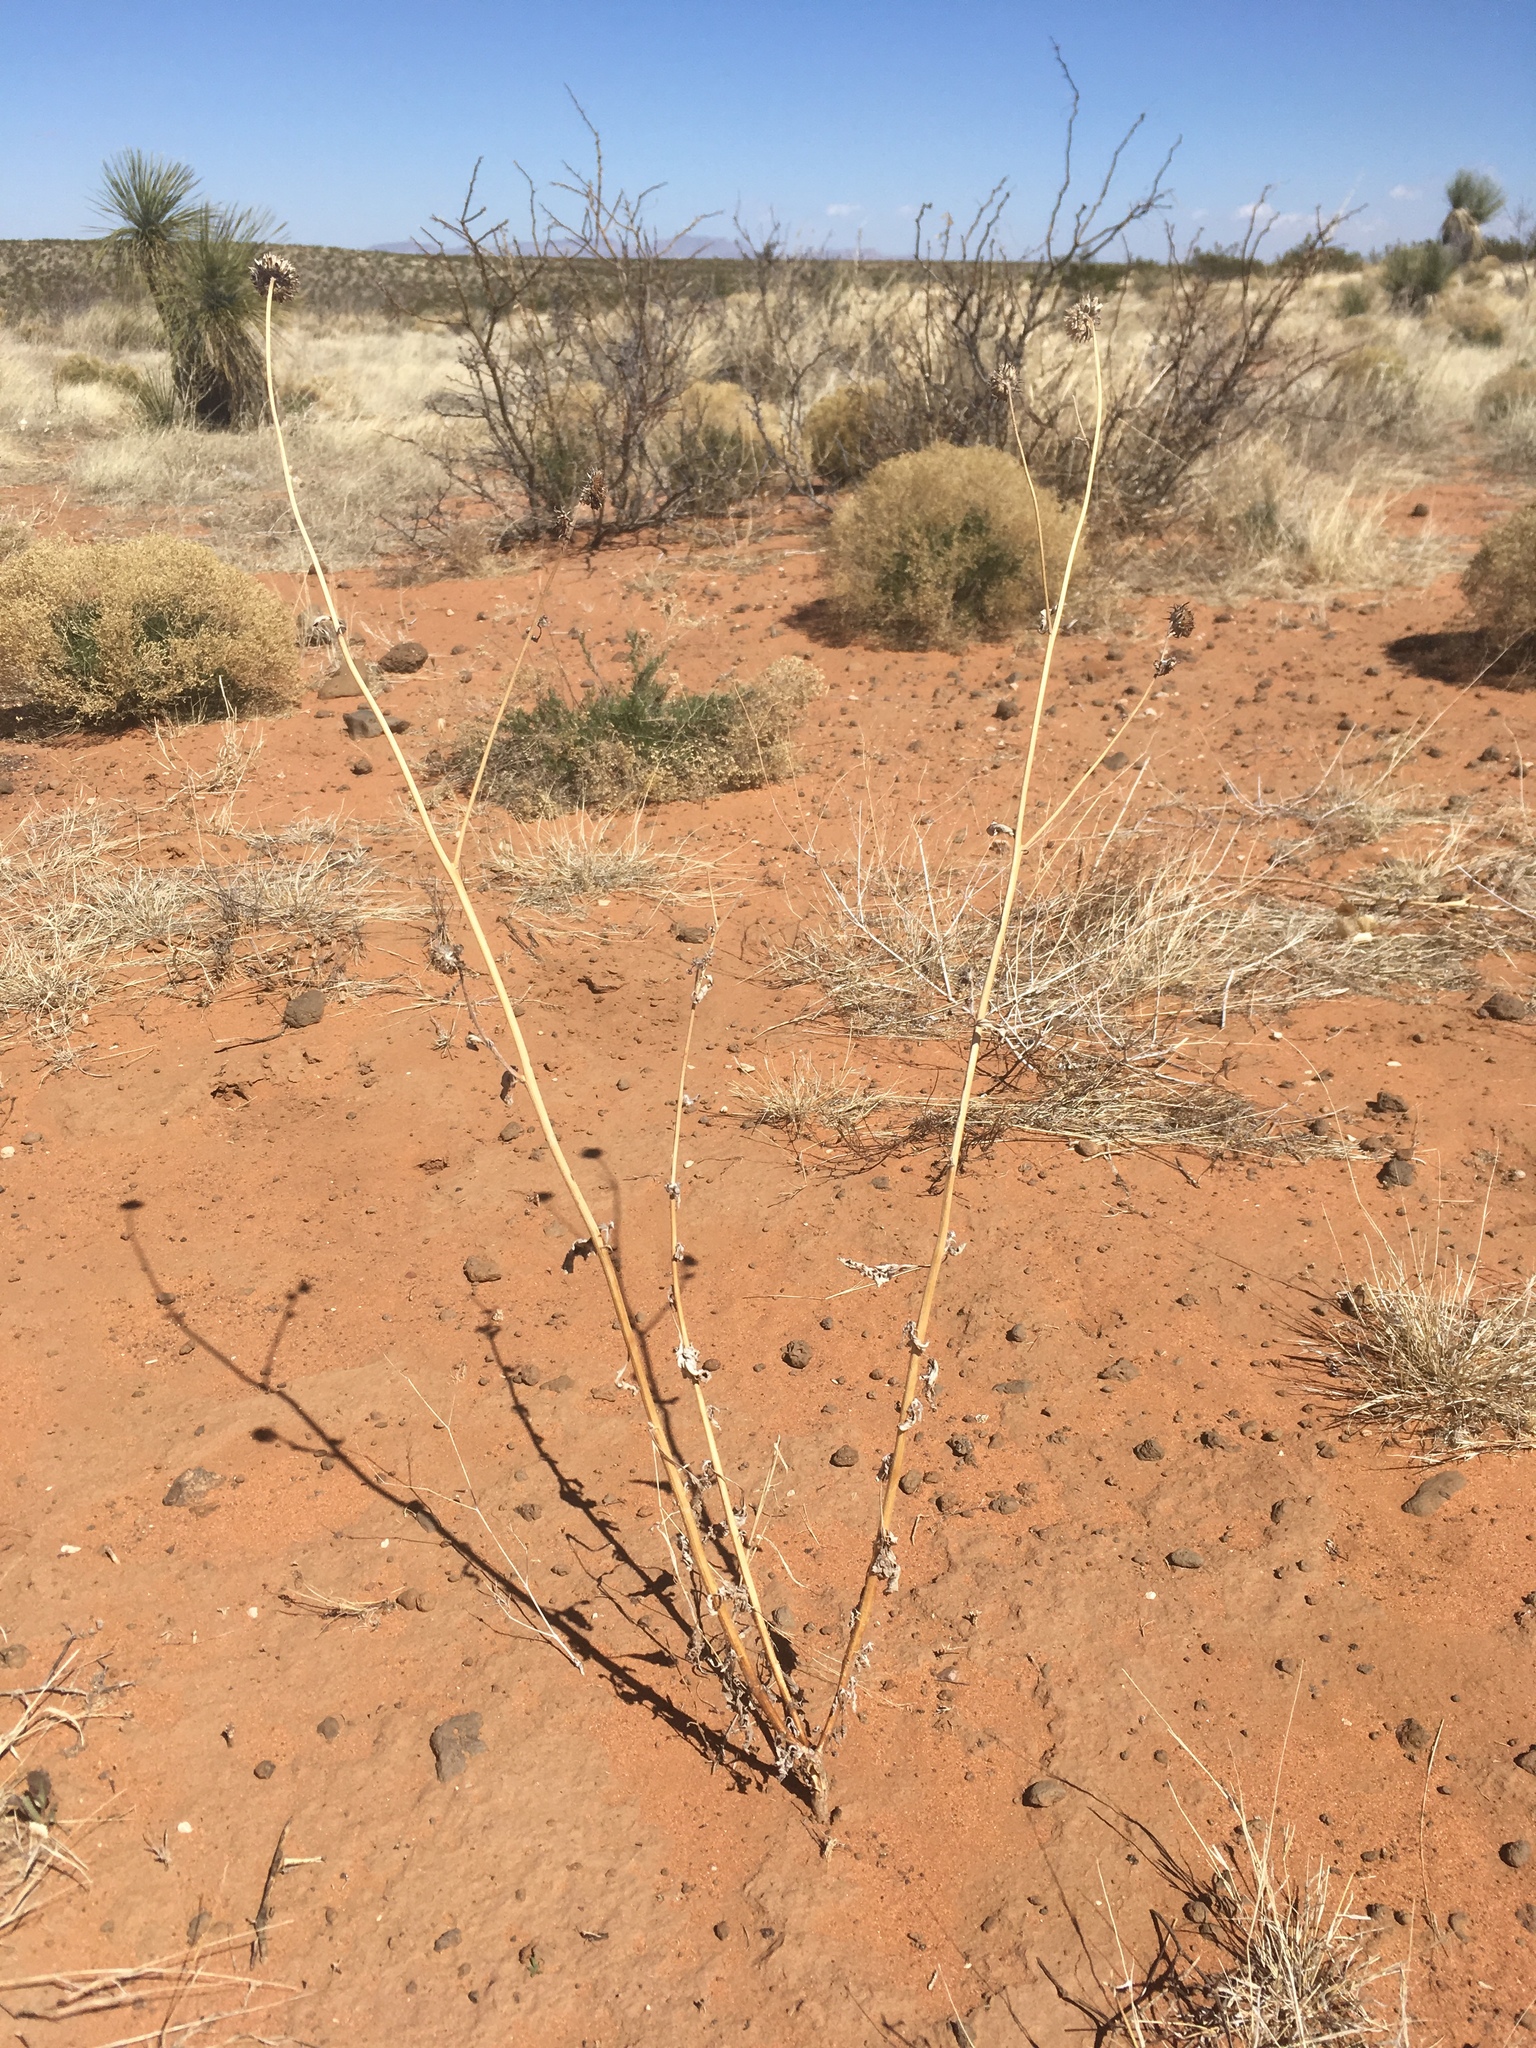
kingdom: Plantae
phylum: Tracheophyta
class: Magnoliopsida
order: Asterales
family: Asteraceae
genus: Helianthus
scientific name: Helianthus petiolaris
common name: Lesser sunflower
